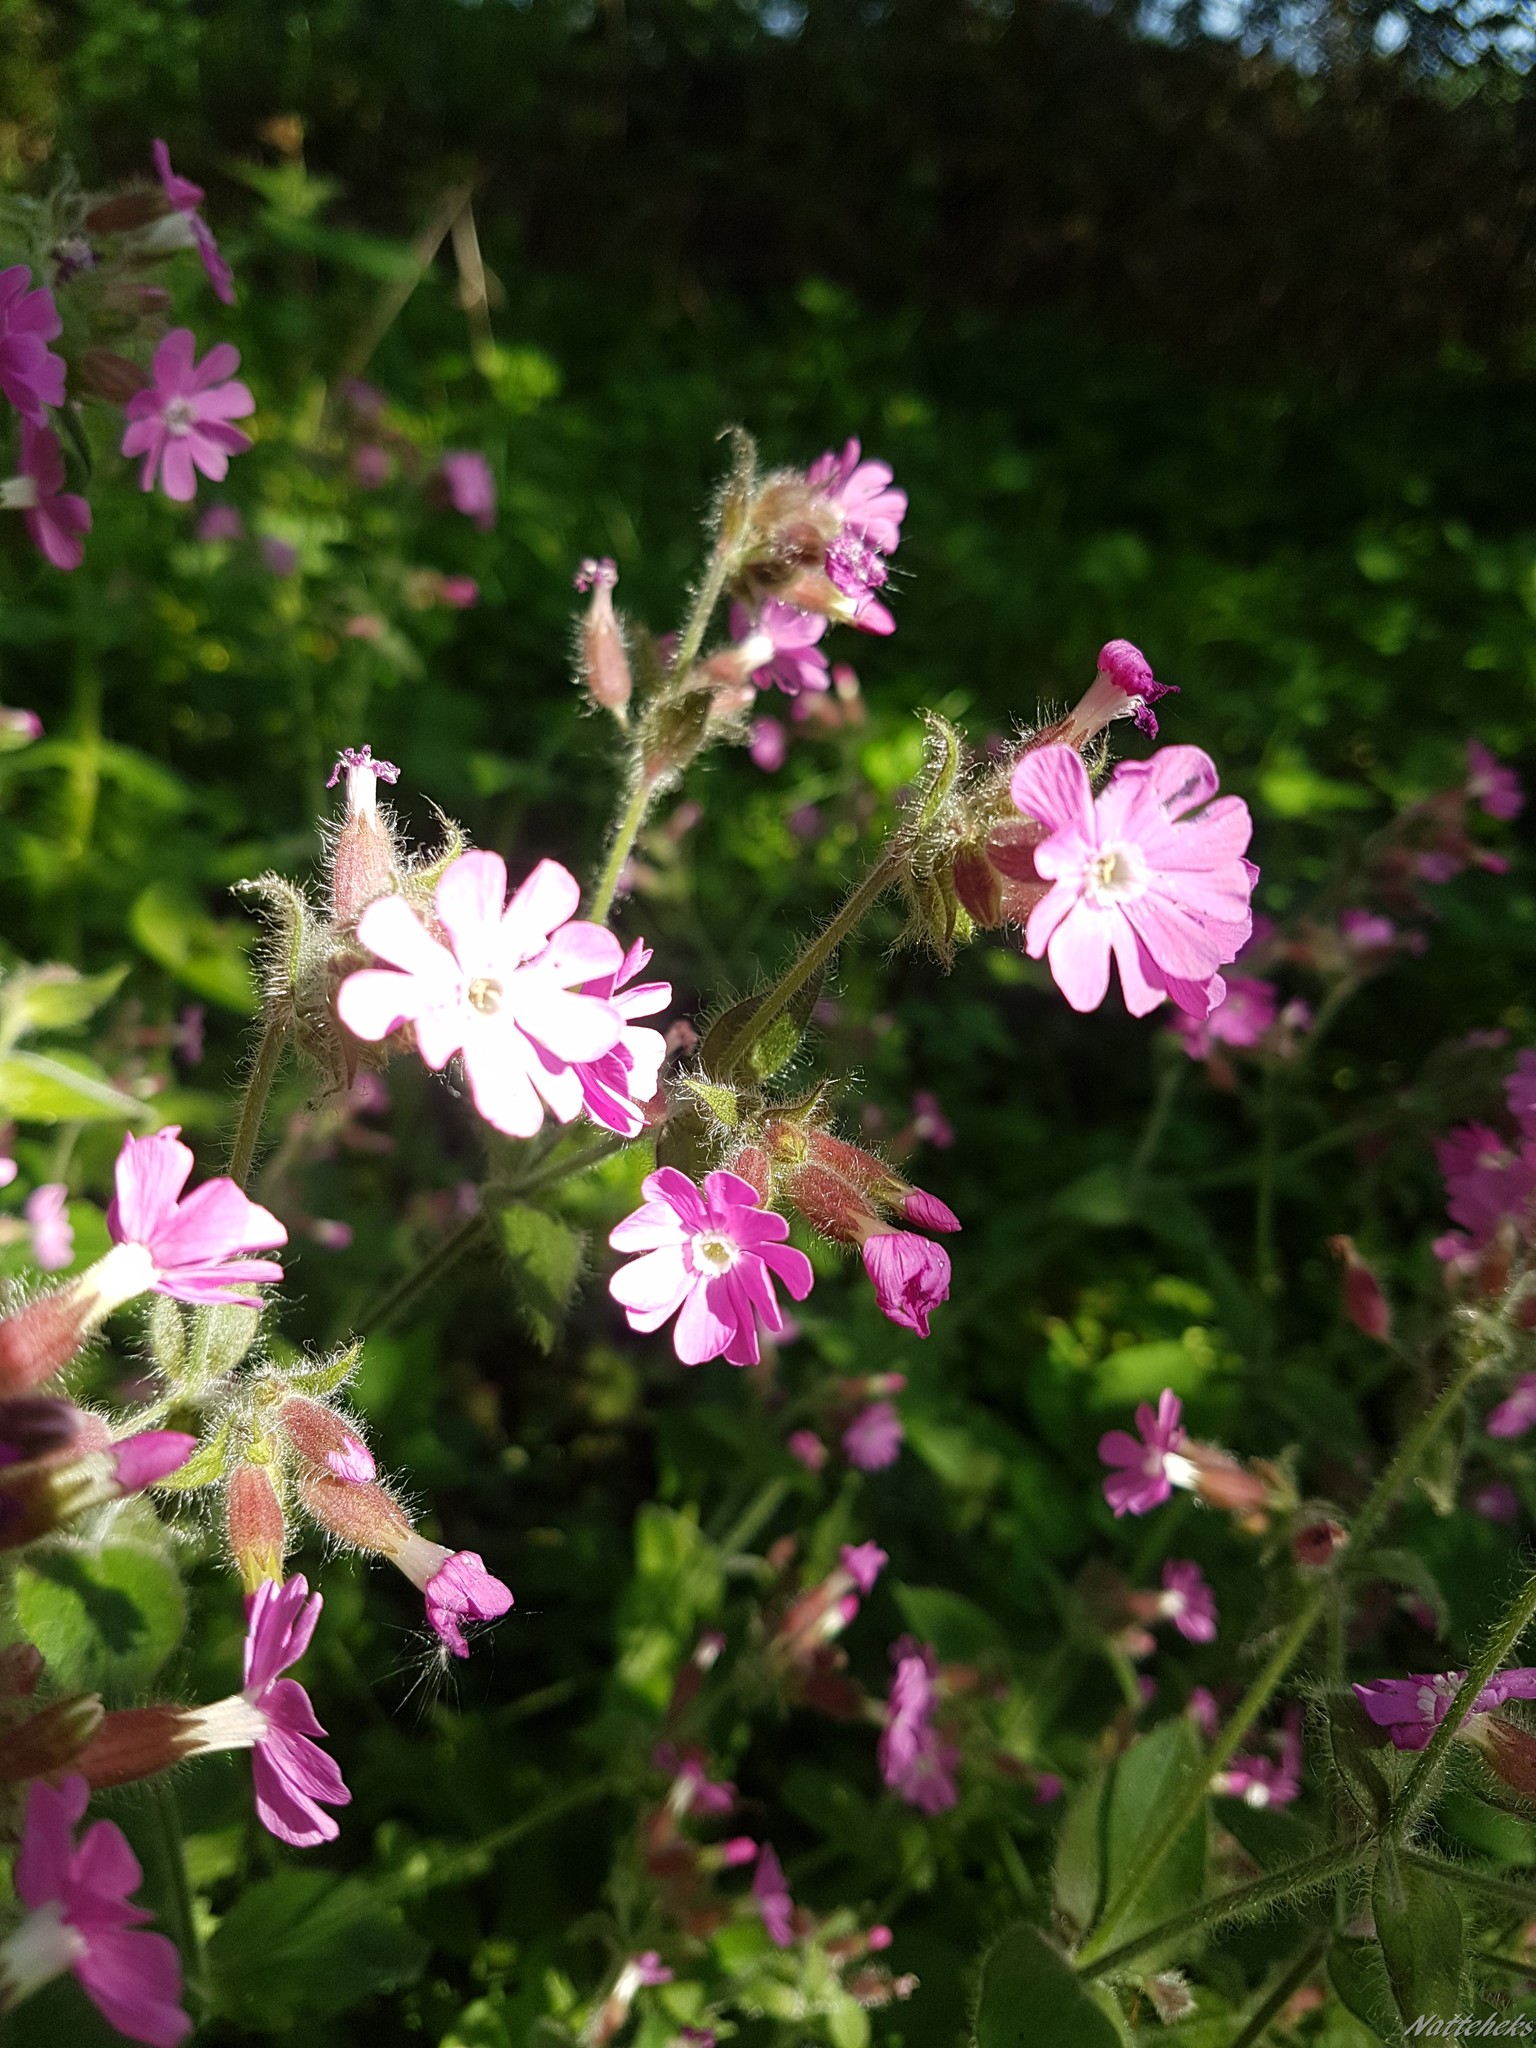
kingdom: Plantae
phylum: Tracheophyta
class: Magnoliopsida
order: Caryophyllales
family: Caryophyllaceae
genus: Silene
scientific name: Silene dioica
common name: Red campion
